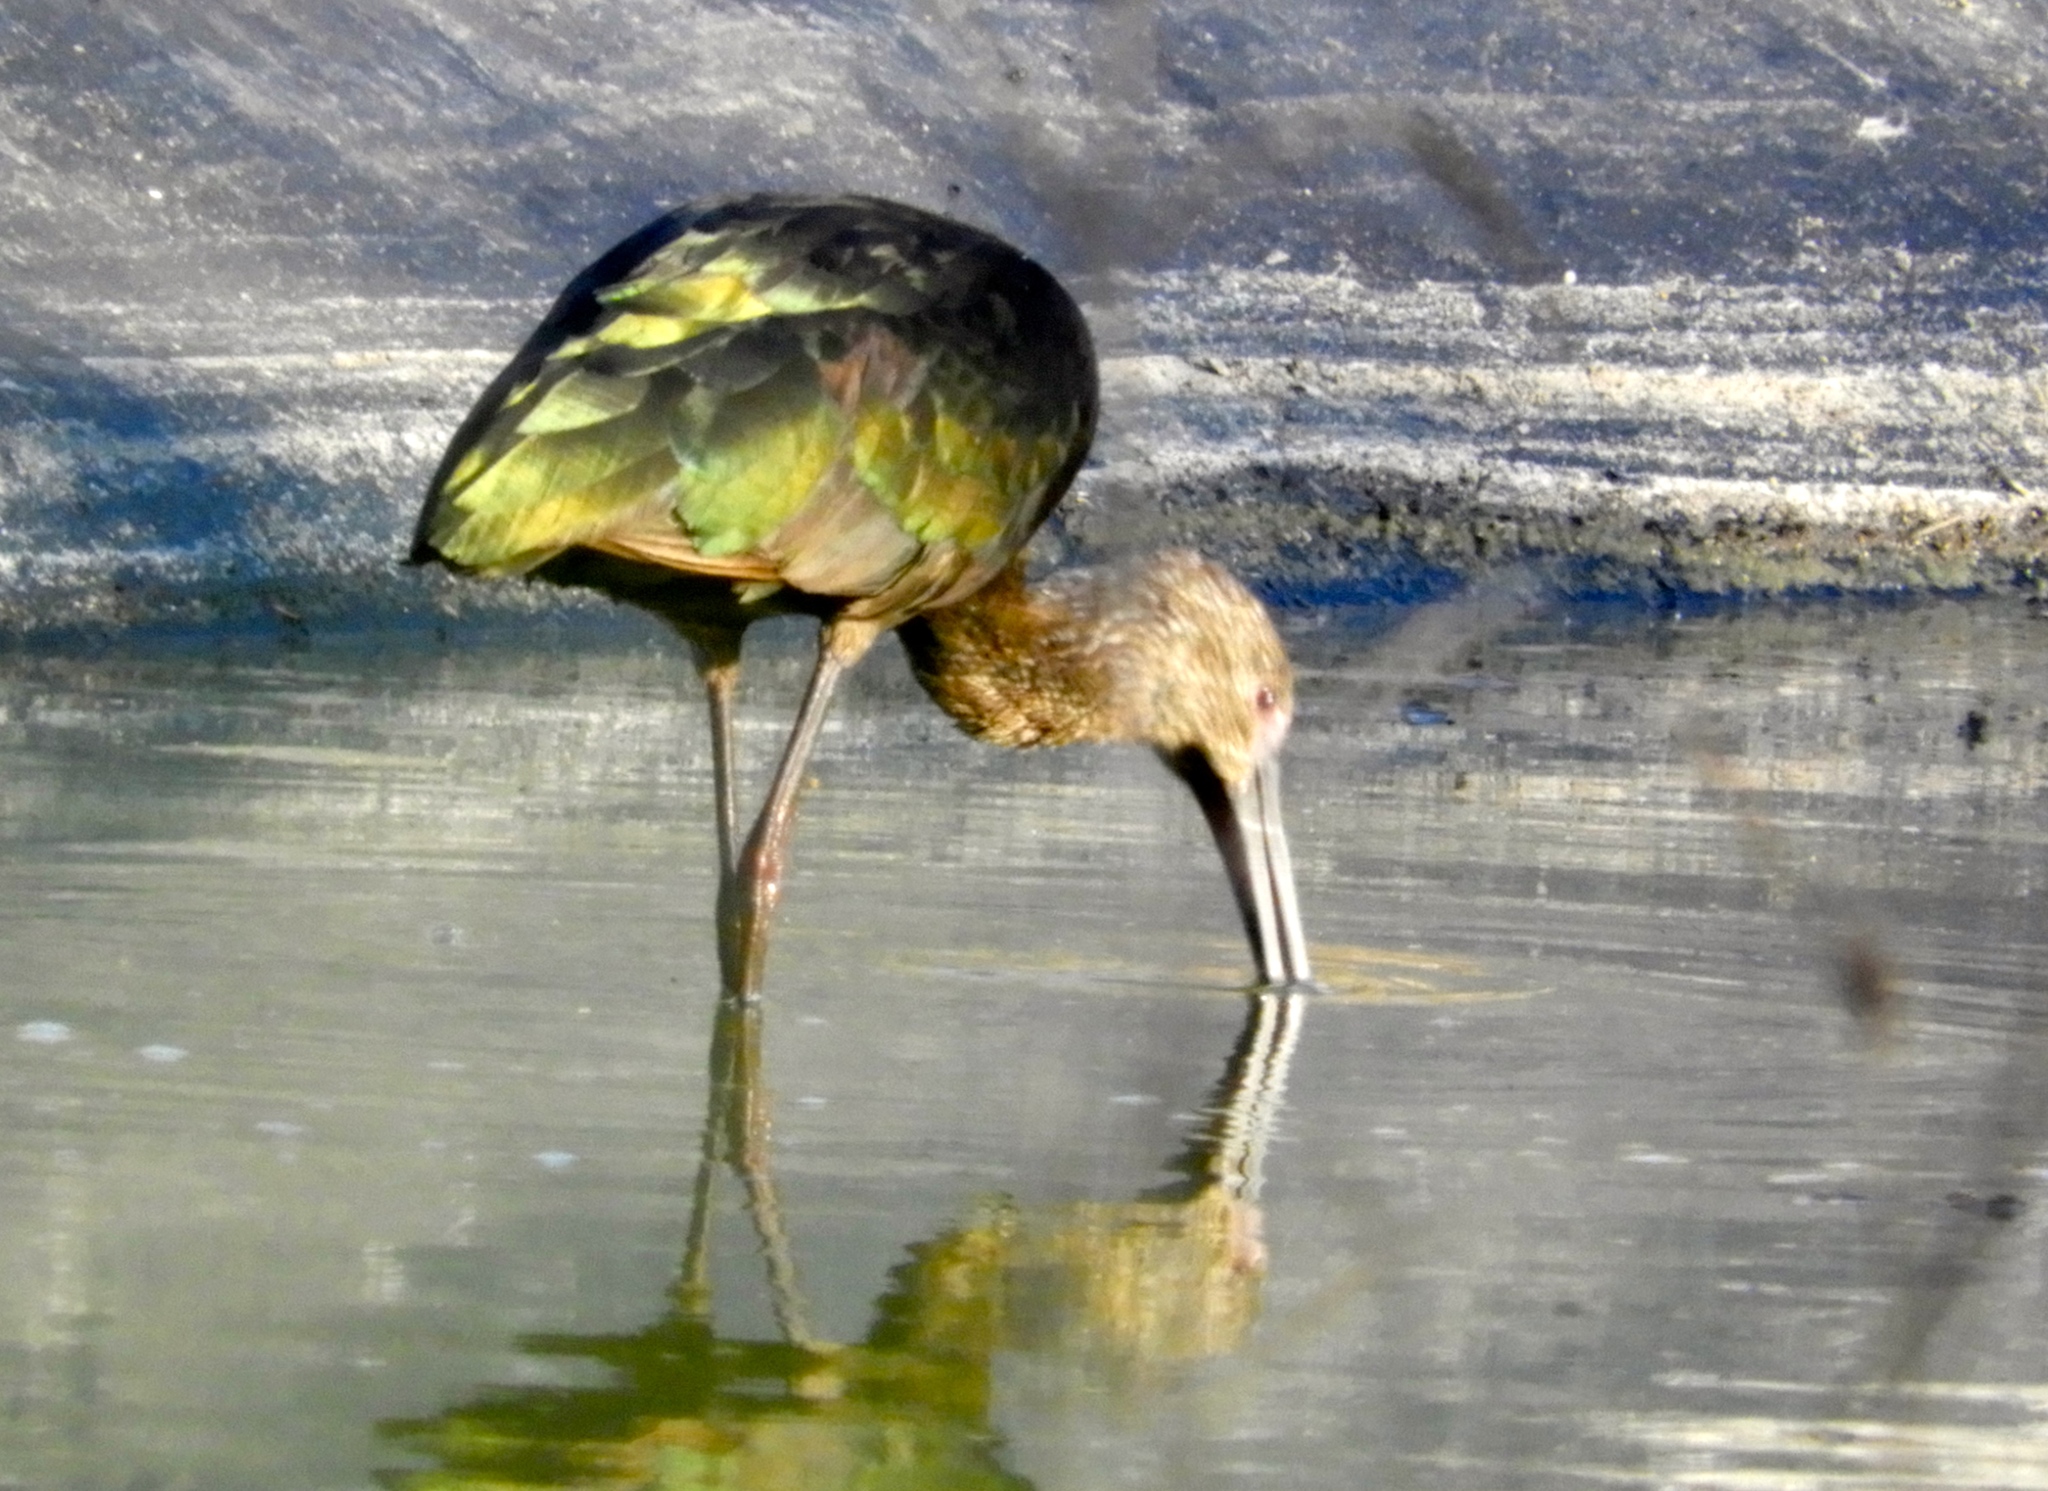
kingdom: Animalia
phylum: Chordata
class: Aves
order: Pelecaniformes
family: Threskiornithidae
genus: Plegadis
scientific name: Plegadis chihi
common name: White-faced ibis
